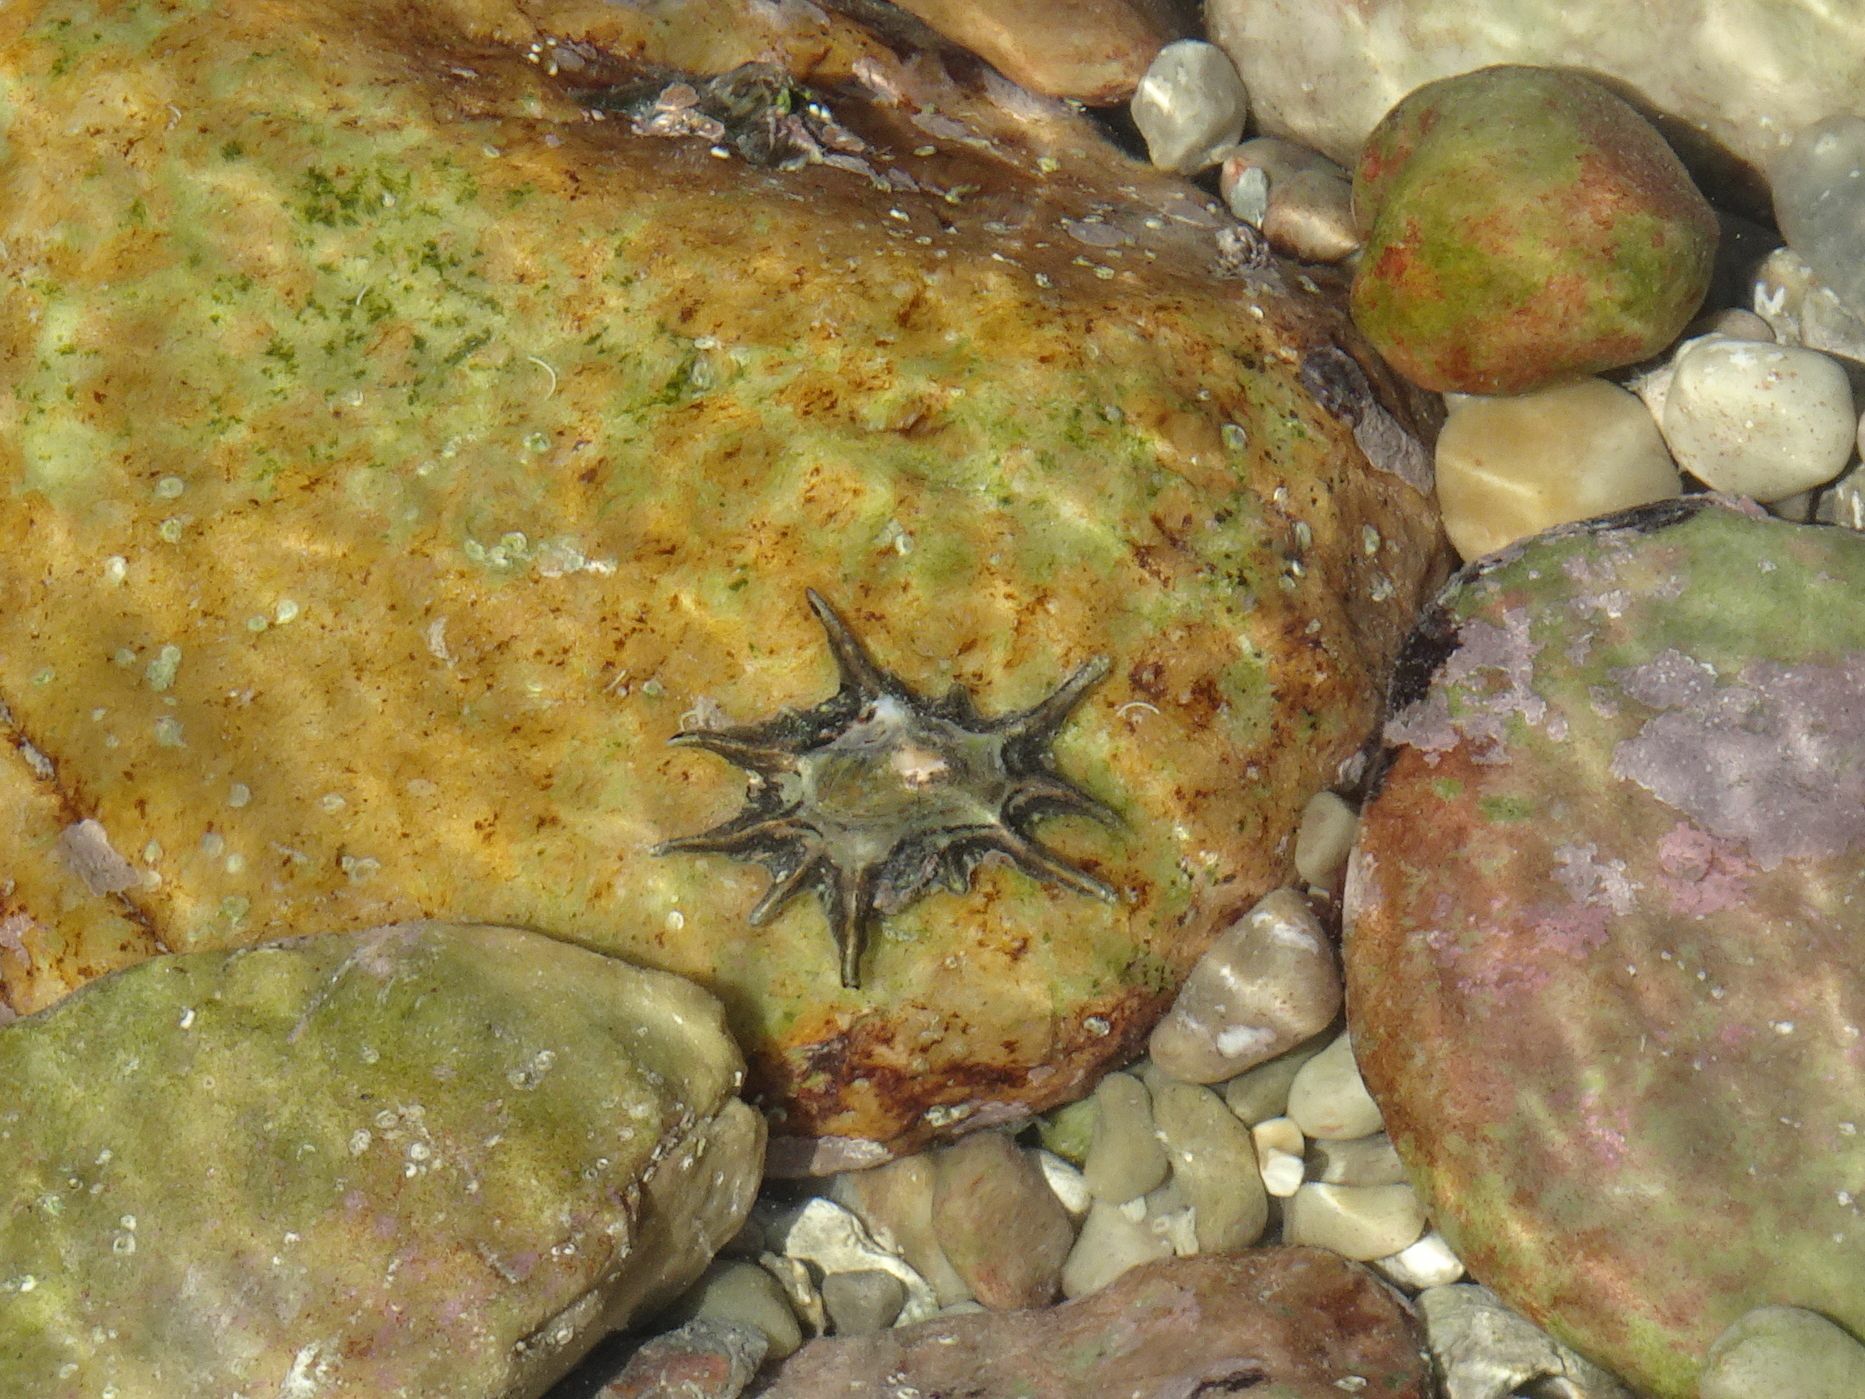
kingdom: Animalia
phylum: Mollusca
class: Gastropoda
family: Patellidae
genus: Scutellastra
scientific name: Scutellastra longicosta
